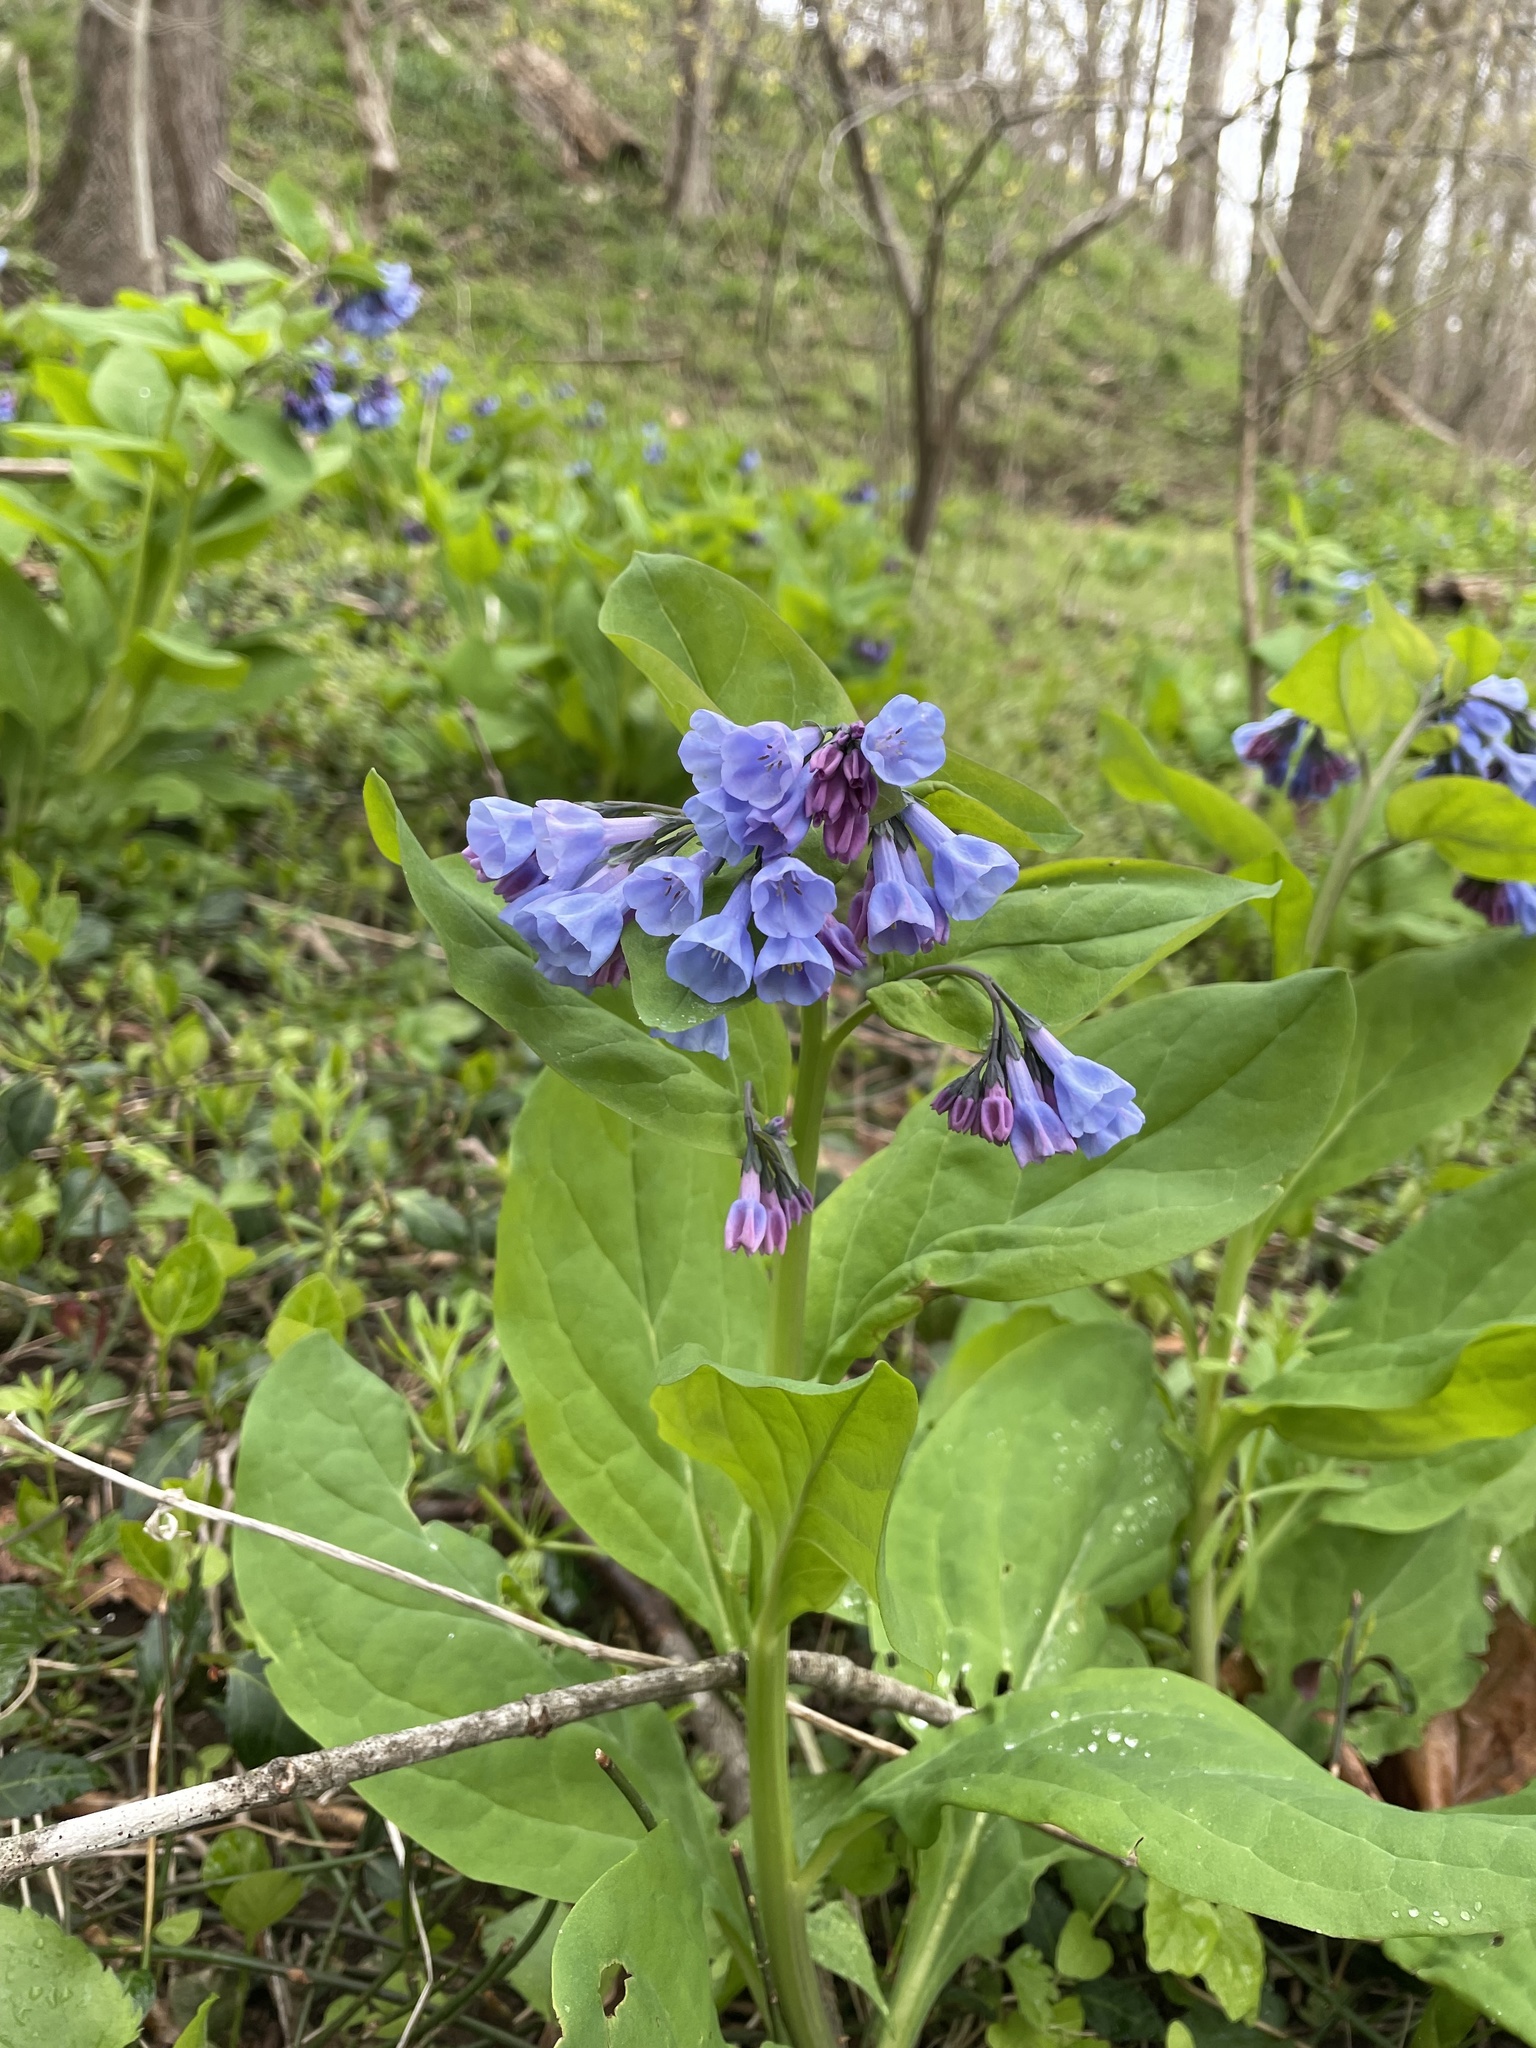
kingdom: Plantae
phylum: Tracheophyta
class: Magnoliopsida
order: Boraginales
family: Boraginaceae
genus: Mertensia
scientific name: Mertensia virginica
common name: Virginia bluebells
